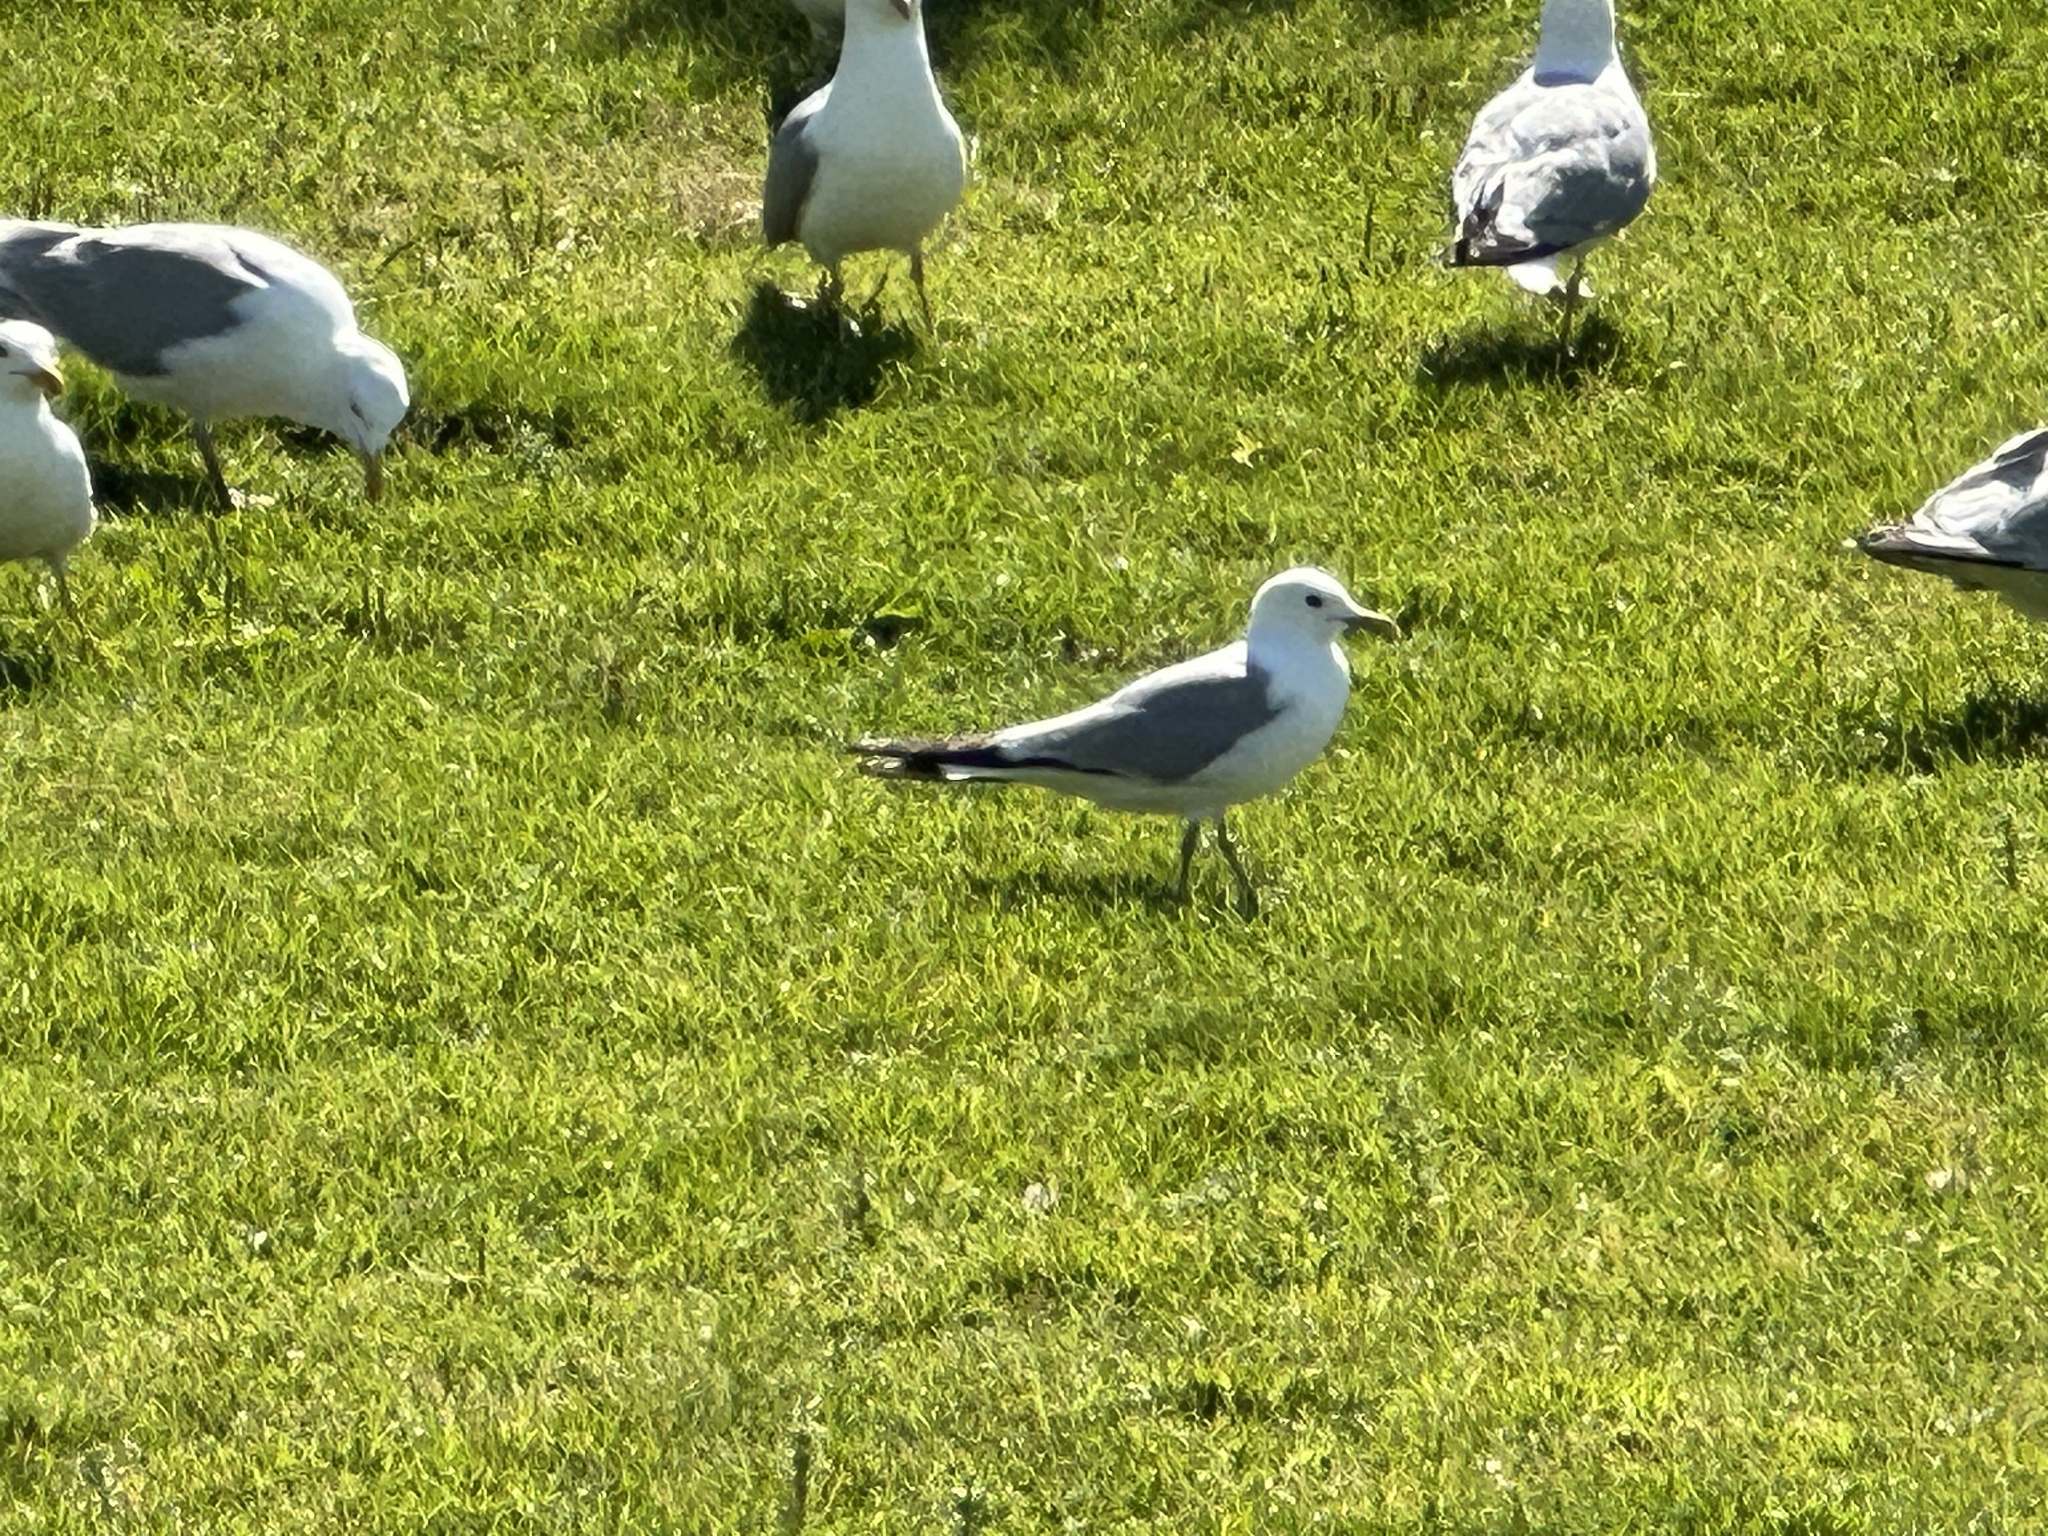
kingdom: Animalia
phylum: Chordata
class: Aves
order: Charadriiformes
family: Laridae
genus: Larus
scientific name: Larus canus
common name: Mew gull
